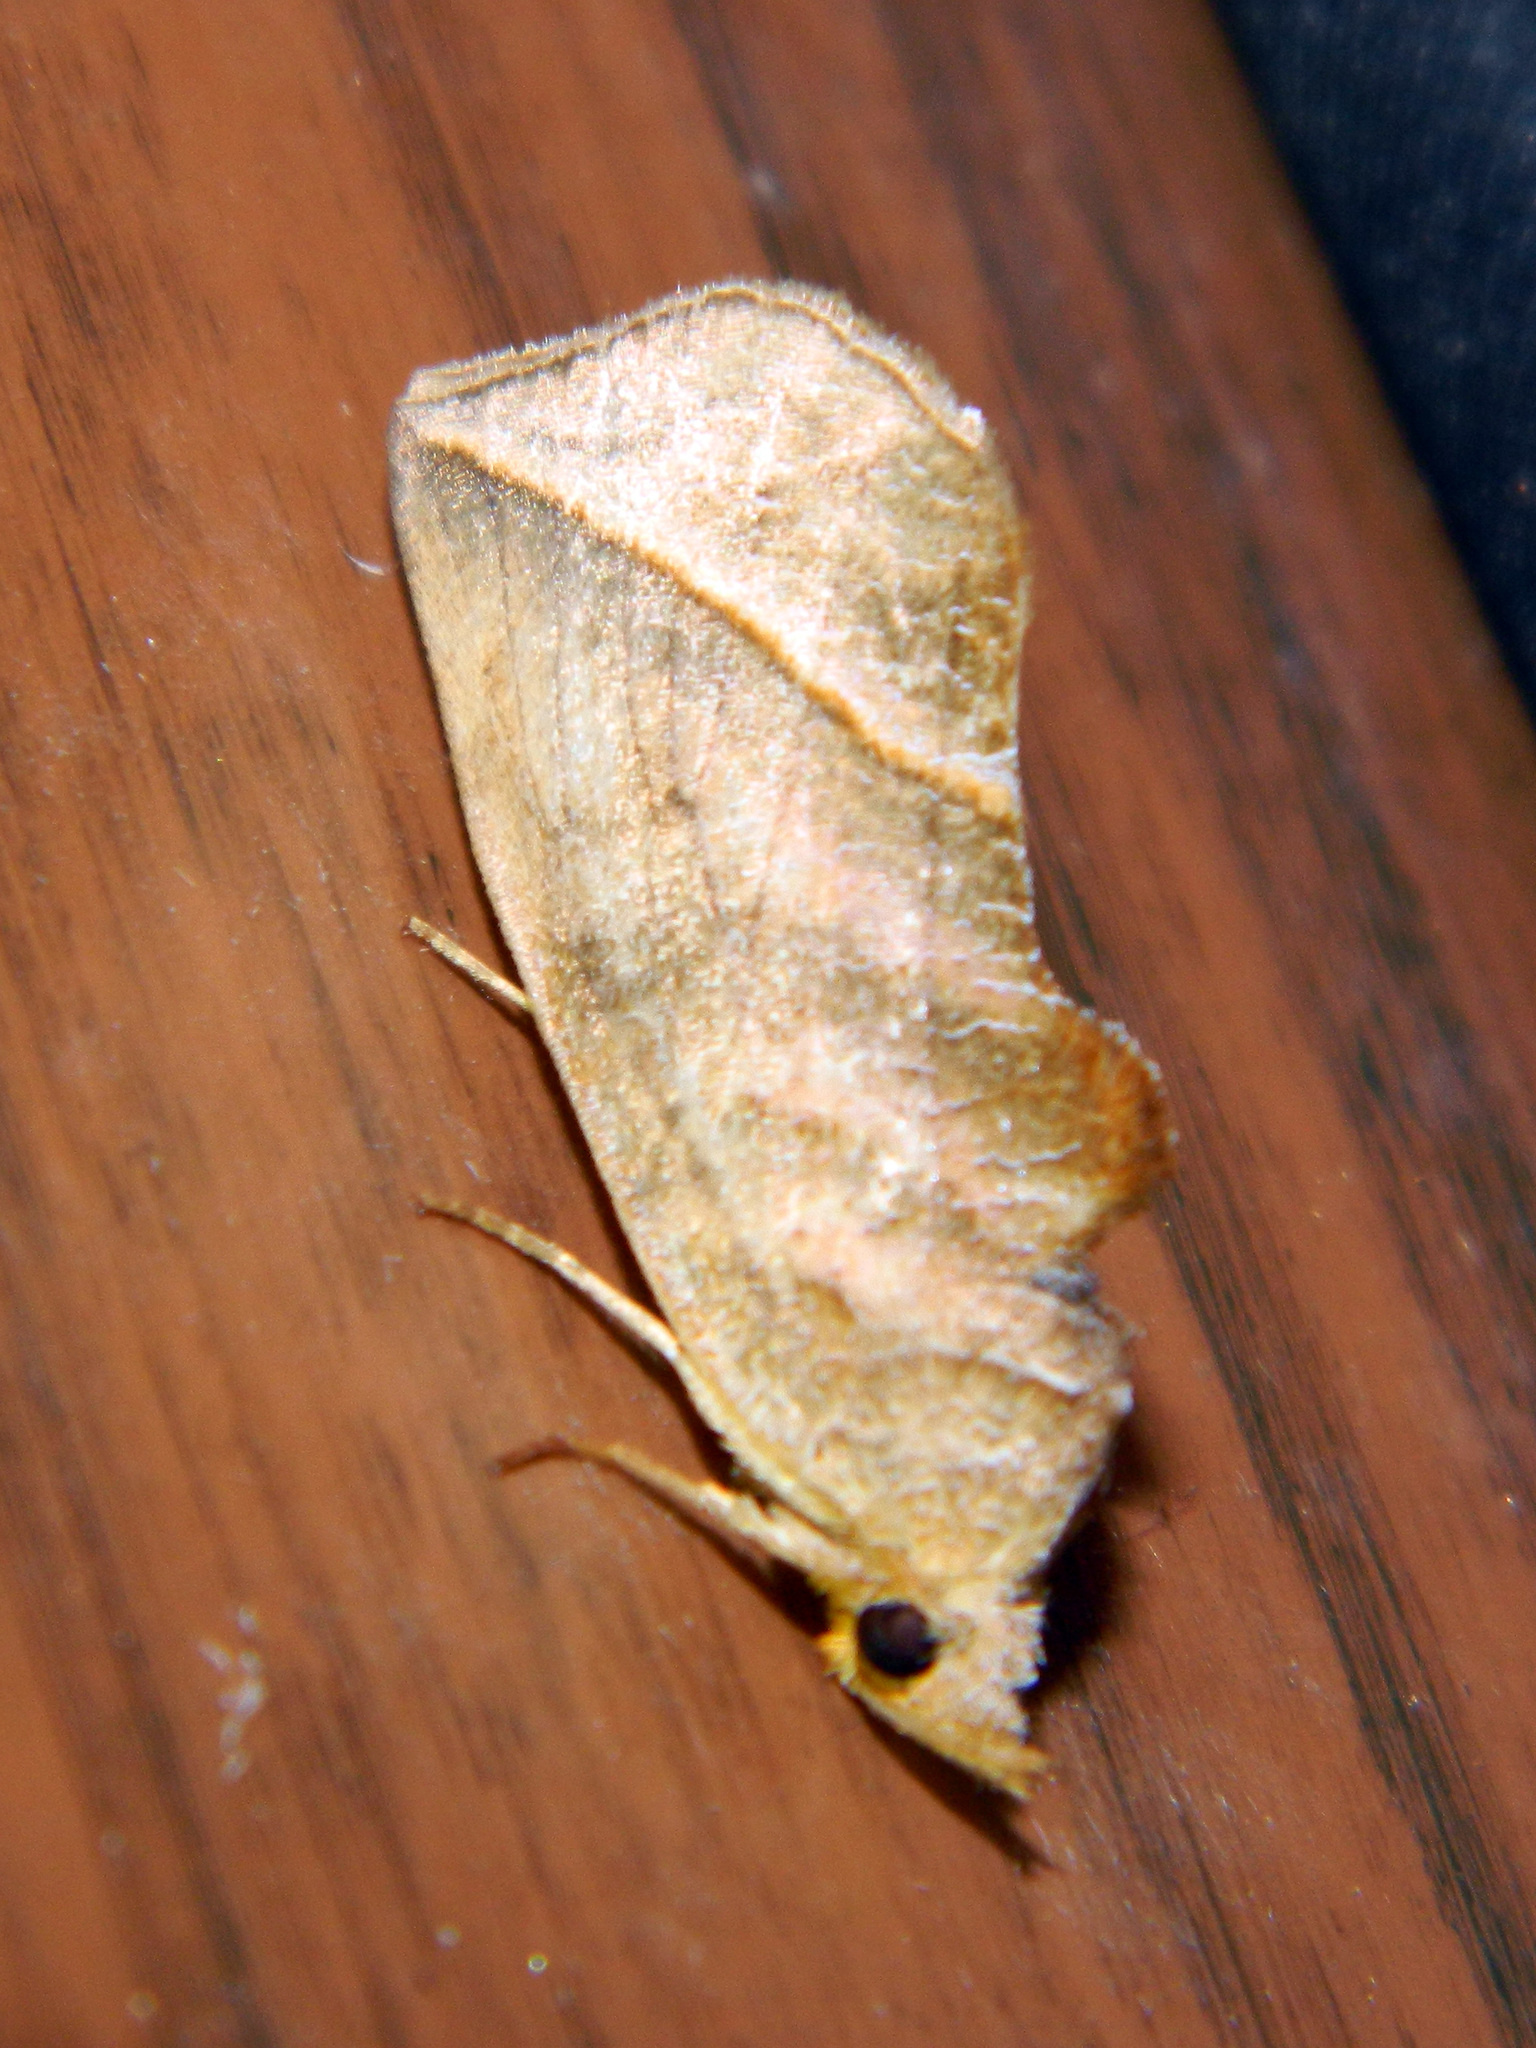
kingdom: Animalia
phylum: Arthropoda
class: Insecta
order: Lepidoptera
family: Erebidae
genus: Calyptra
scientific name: Calyptra canadensis
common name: Canadian owlet
